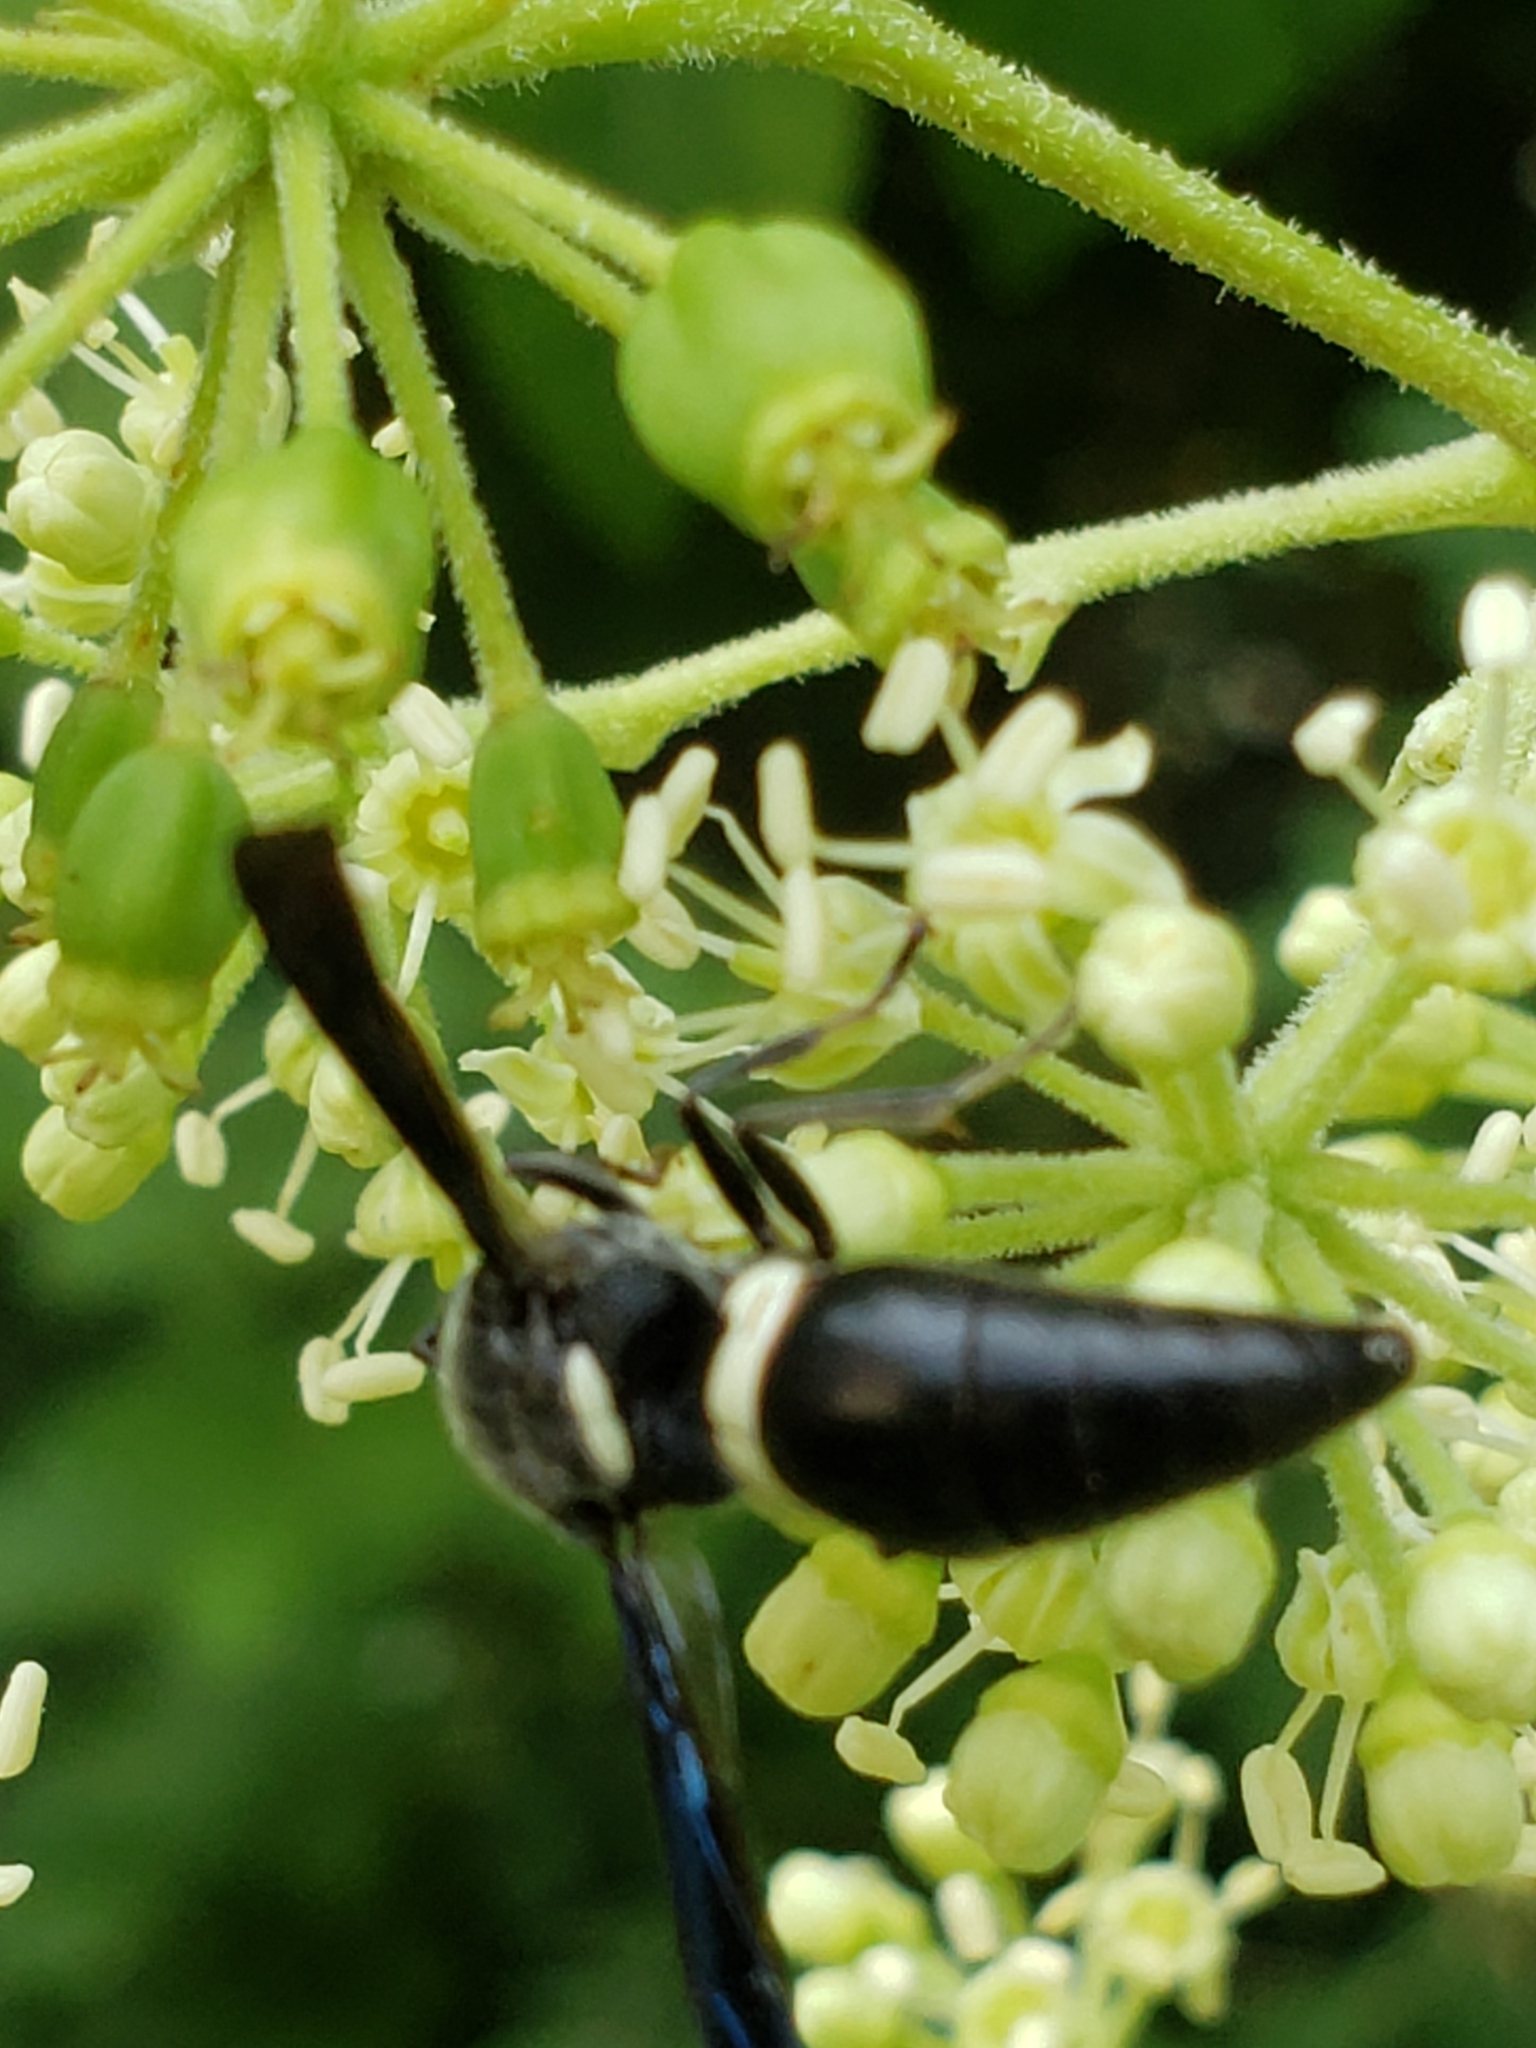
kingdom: Animalia
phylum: Arthropoda
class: Insecta
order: Hymenoptera
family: Eumenidae
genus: Monobia
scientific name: Monobia quadridens
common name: Four-toothed mason wasp
